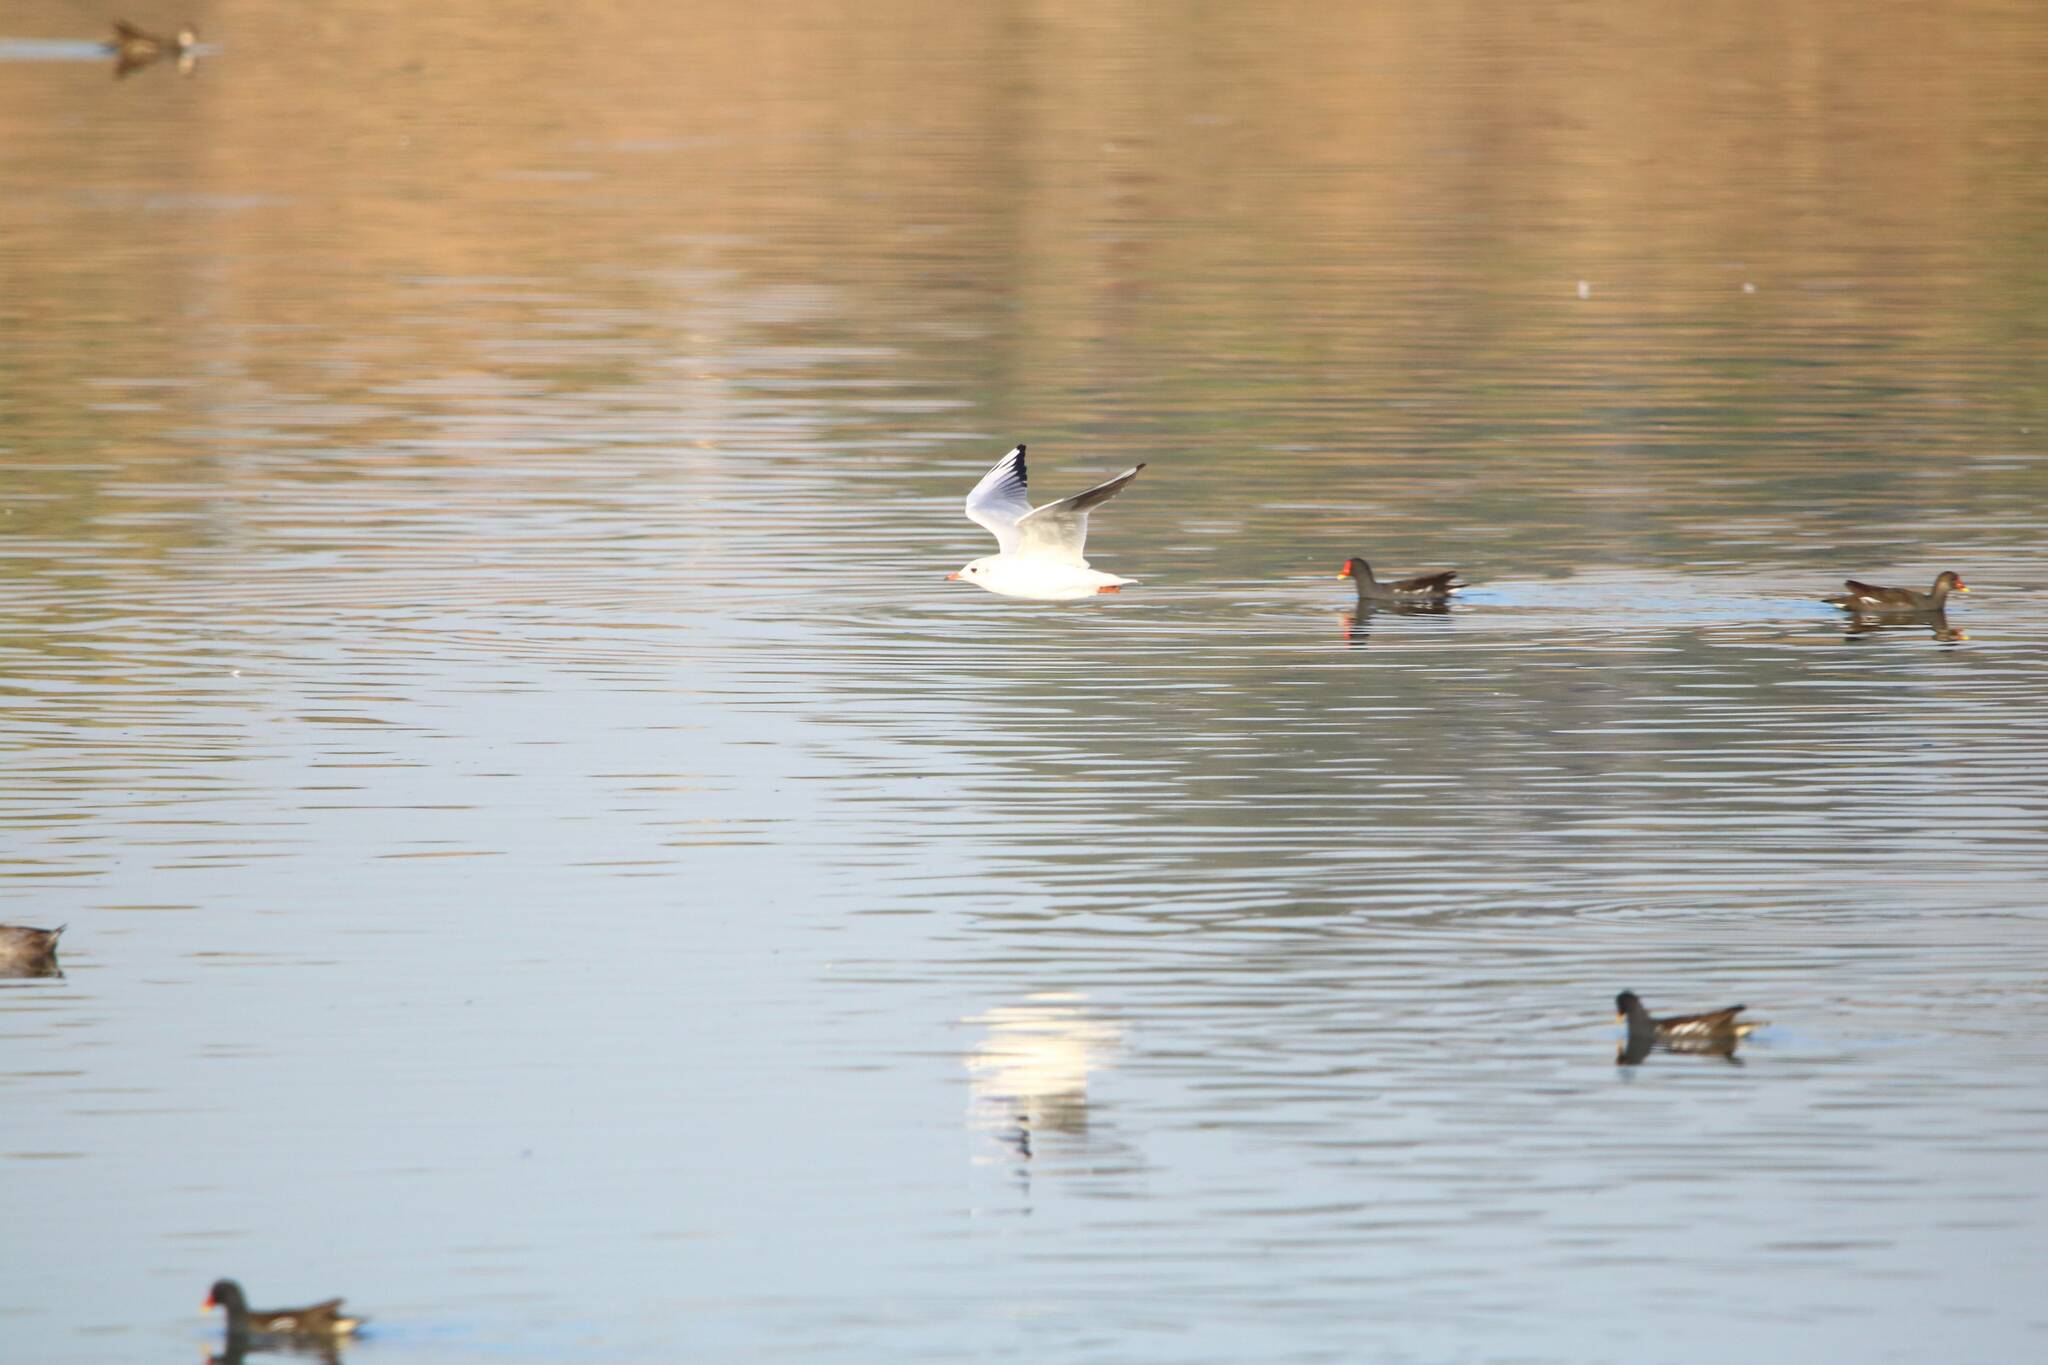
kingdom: Animalia
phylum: Chordata
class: Aves
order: Charadriiformes
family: Laridae
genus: Chroicocephalus
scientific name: Chroicocephalus ridibundus
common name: Black-headed gull
